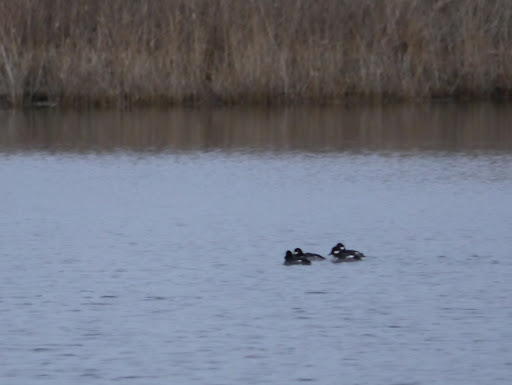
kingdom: Animalia
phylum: Chordata
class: Aves
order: Anseriformes
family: Anatidae
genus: Bucephala
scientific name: Bucephala albeola
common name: Bufflehead
